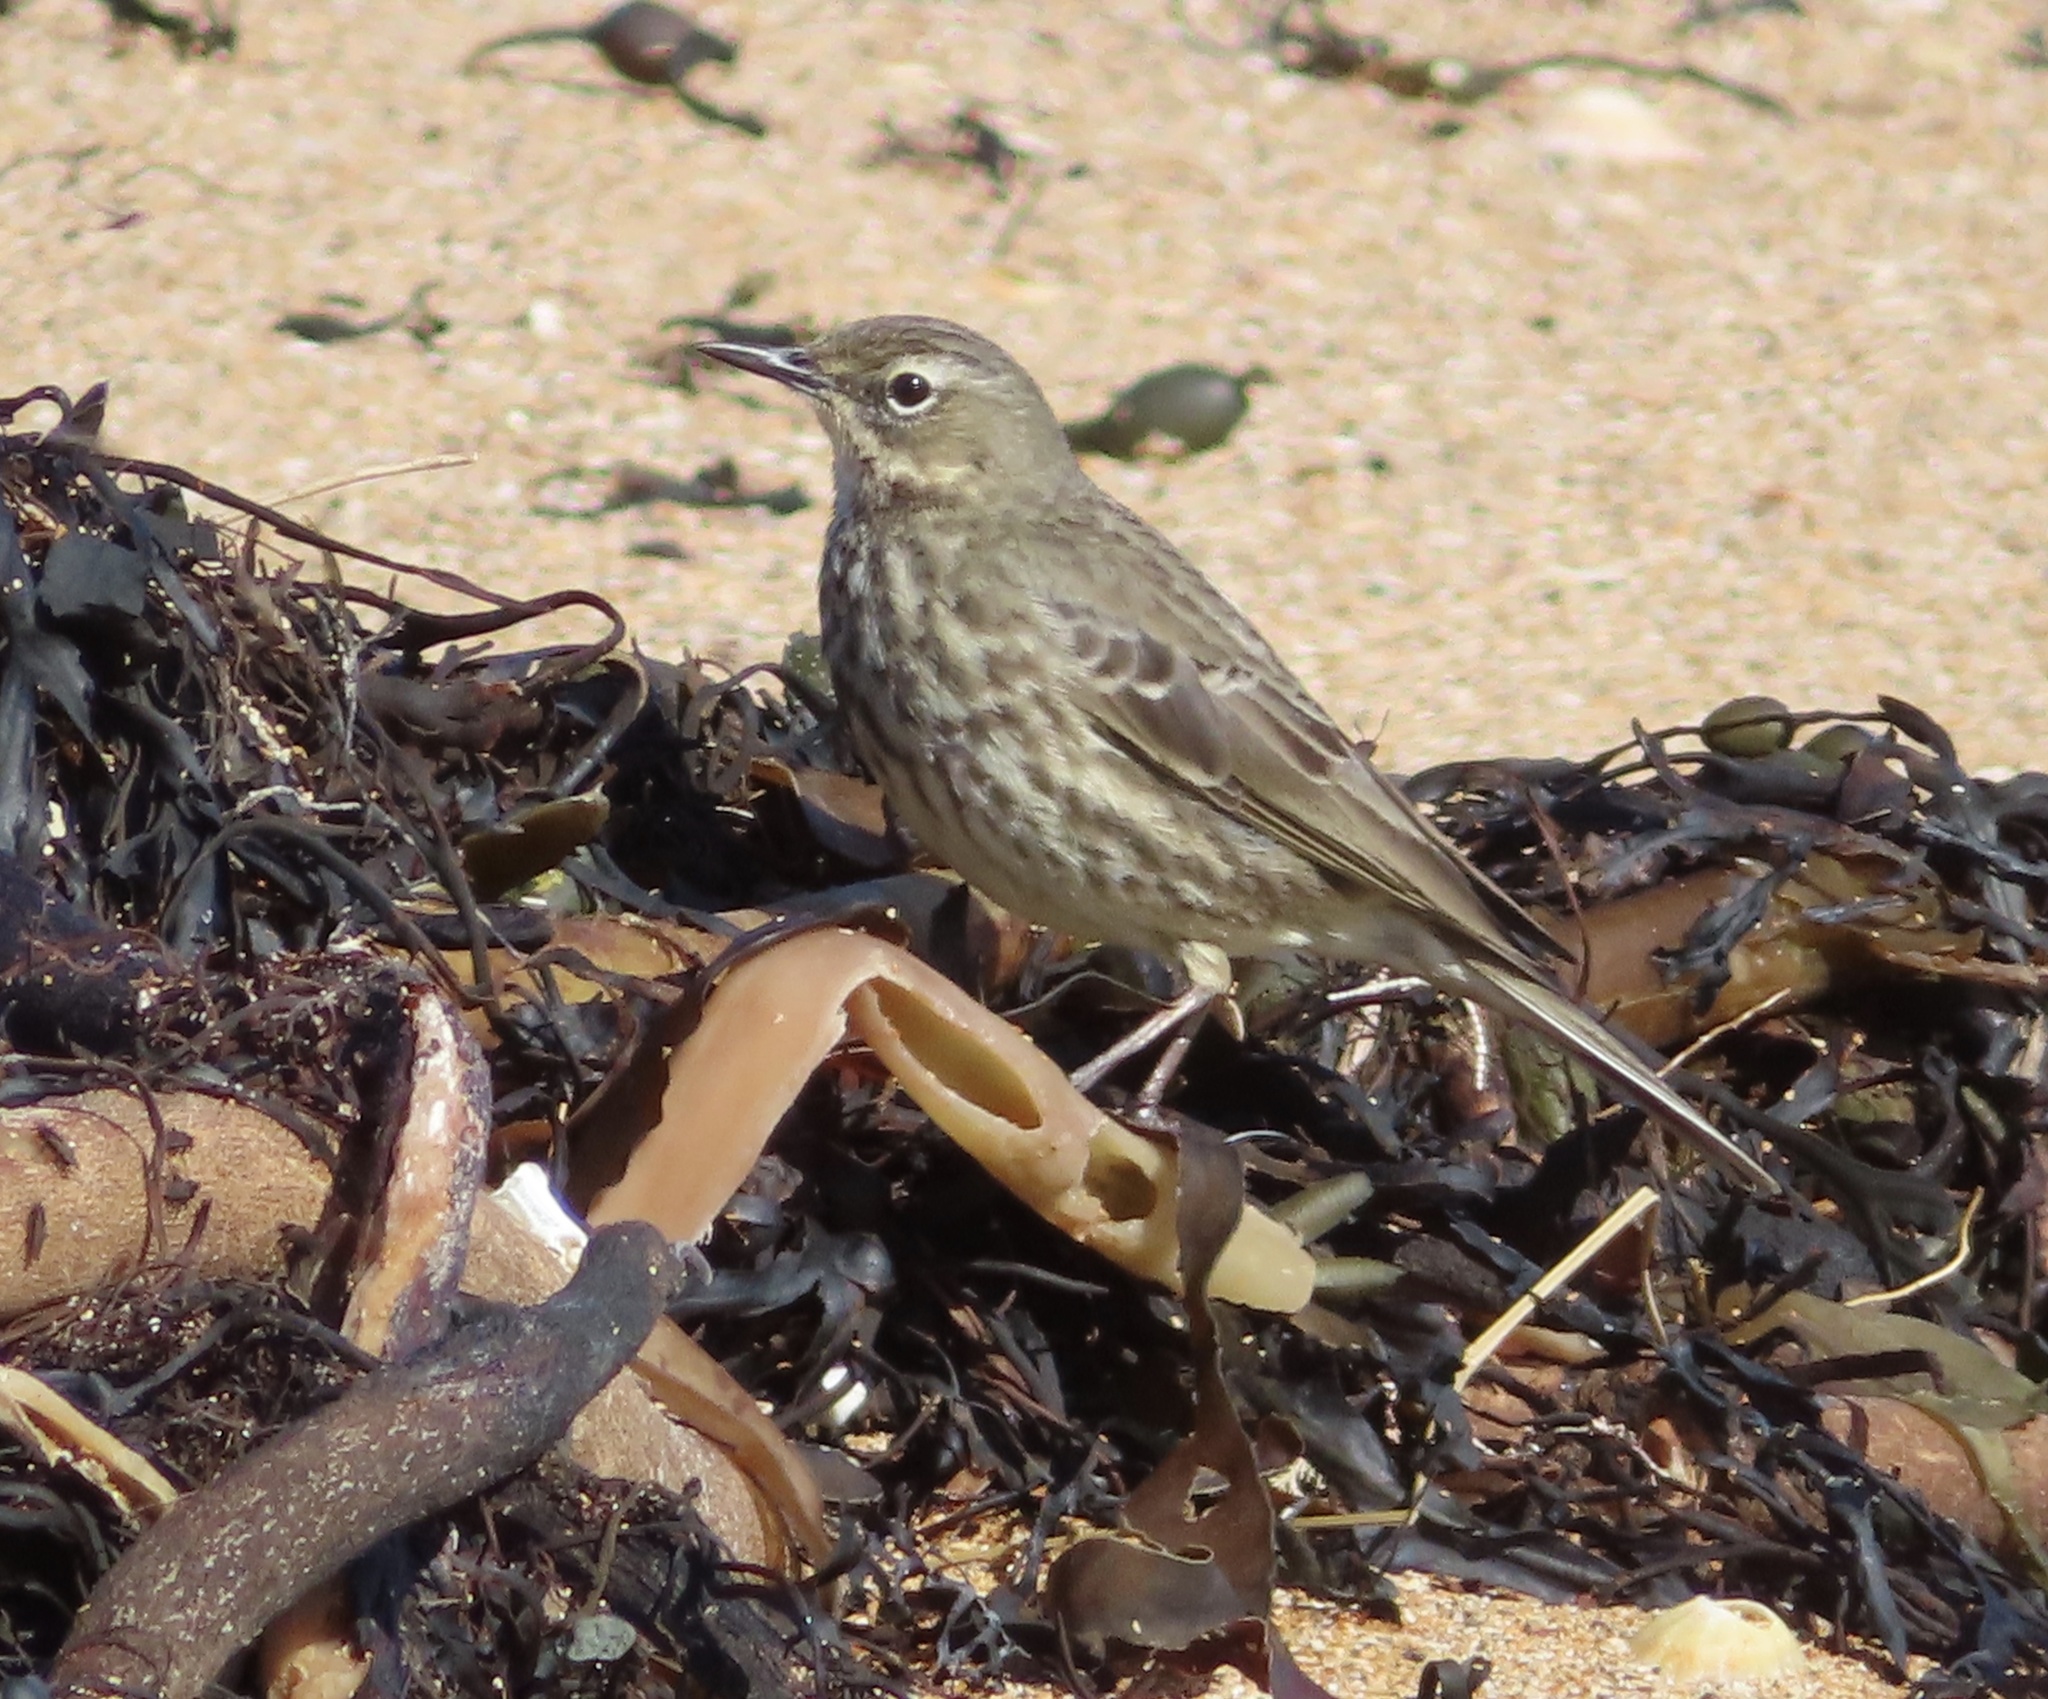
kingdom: Animalia
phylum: Chordata
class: Aves
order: Passeriformes
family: Motacillidae
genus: Anthus
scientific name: Anthus petrosus
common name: Eurasian rock pipit
